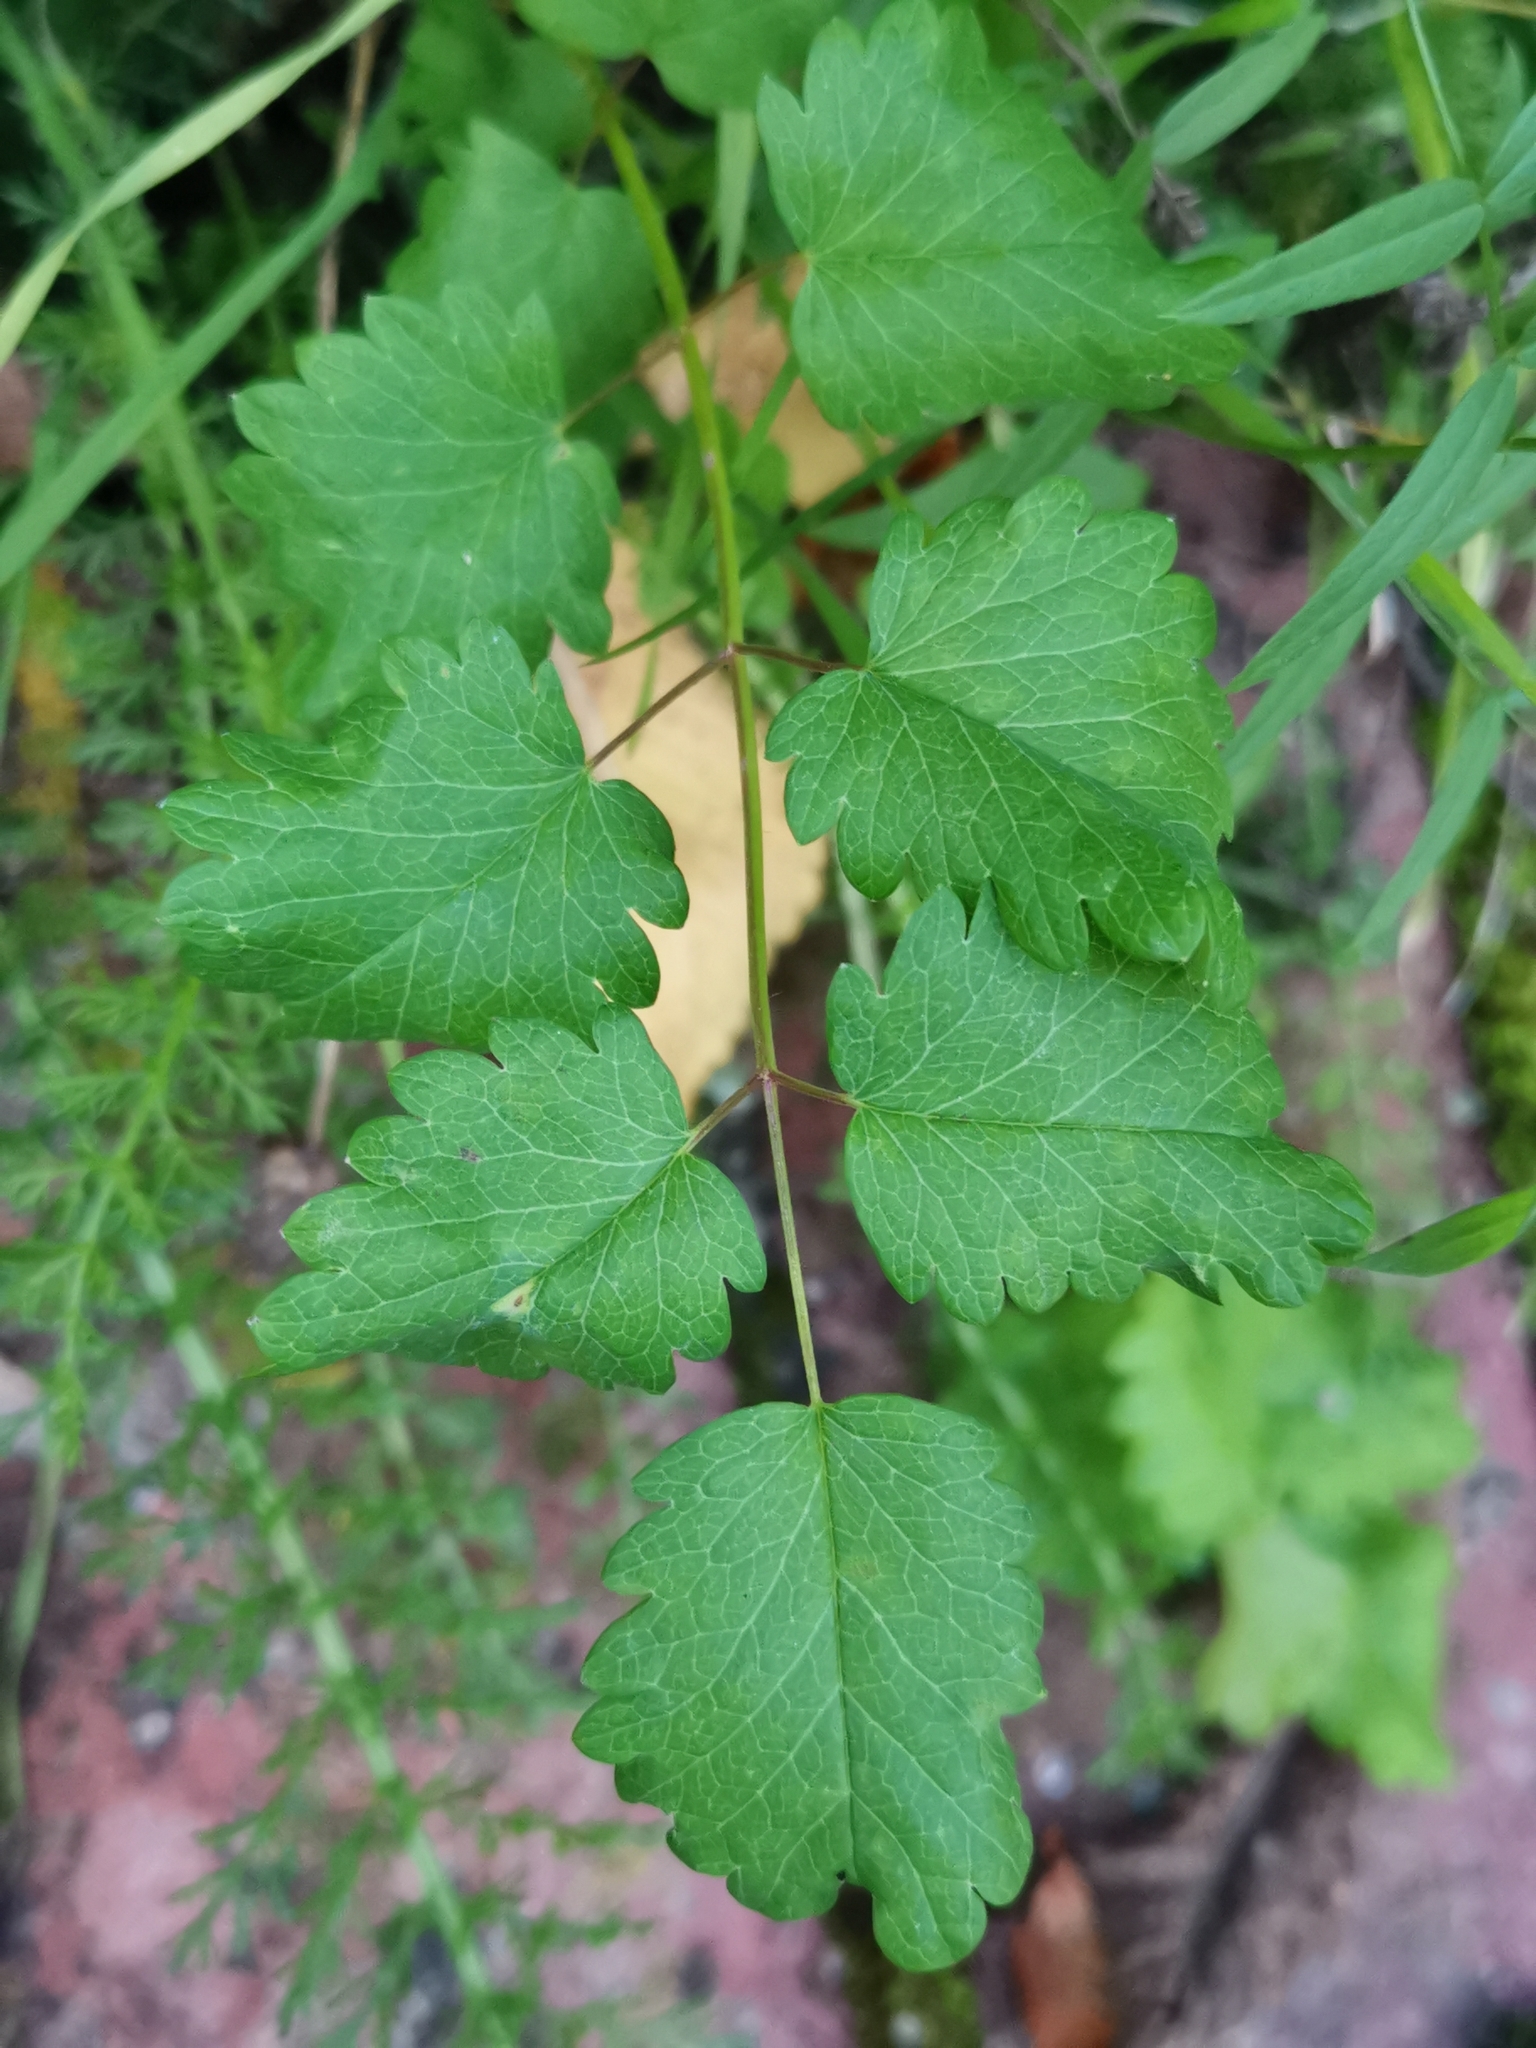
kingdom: Plantae
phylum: Tracheophyta
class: Magnoliopsida
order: Rosales
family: Rosaceae
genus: Poterium
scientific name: Poterium sanguisorba
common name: Salad burnet
